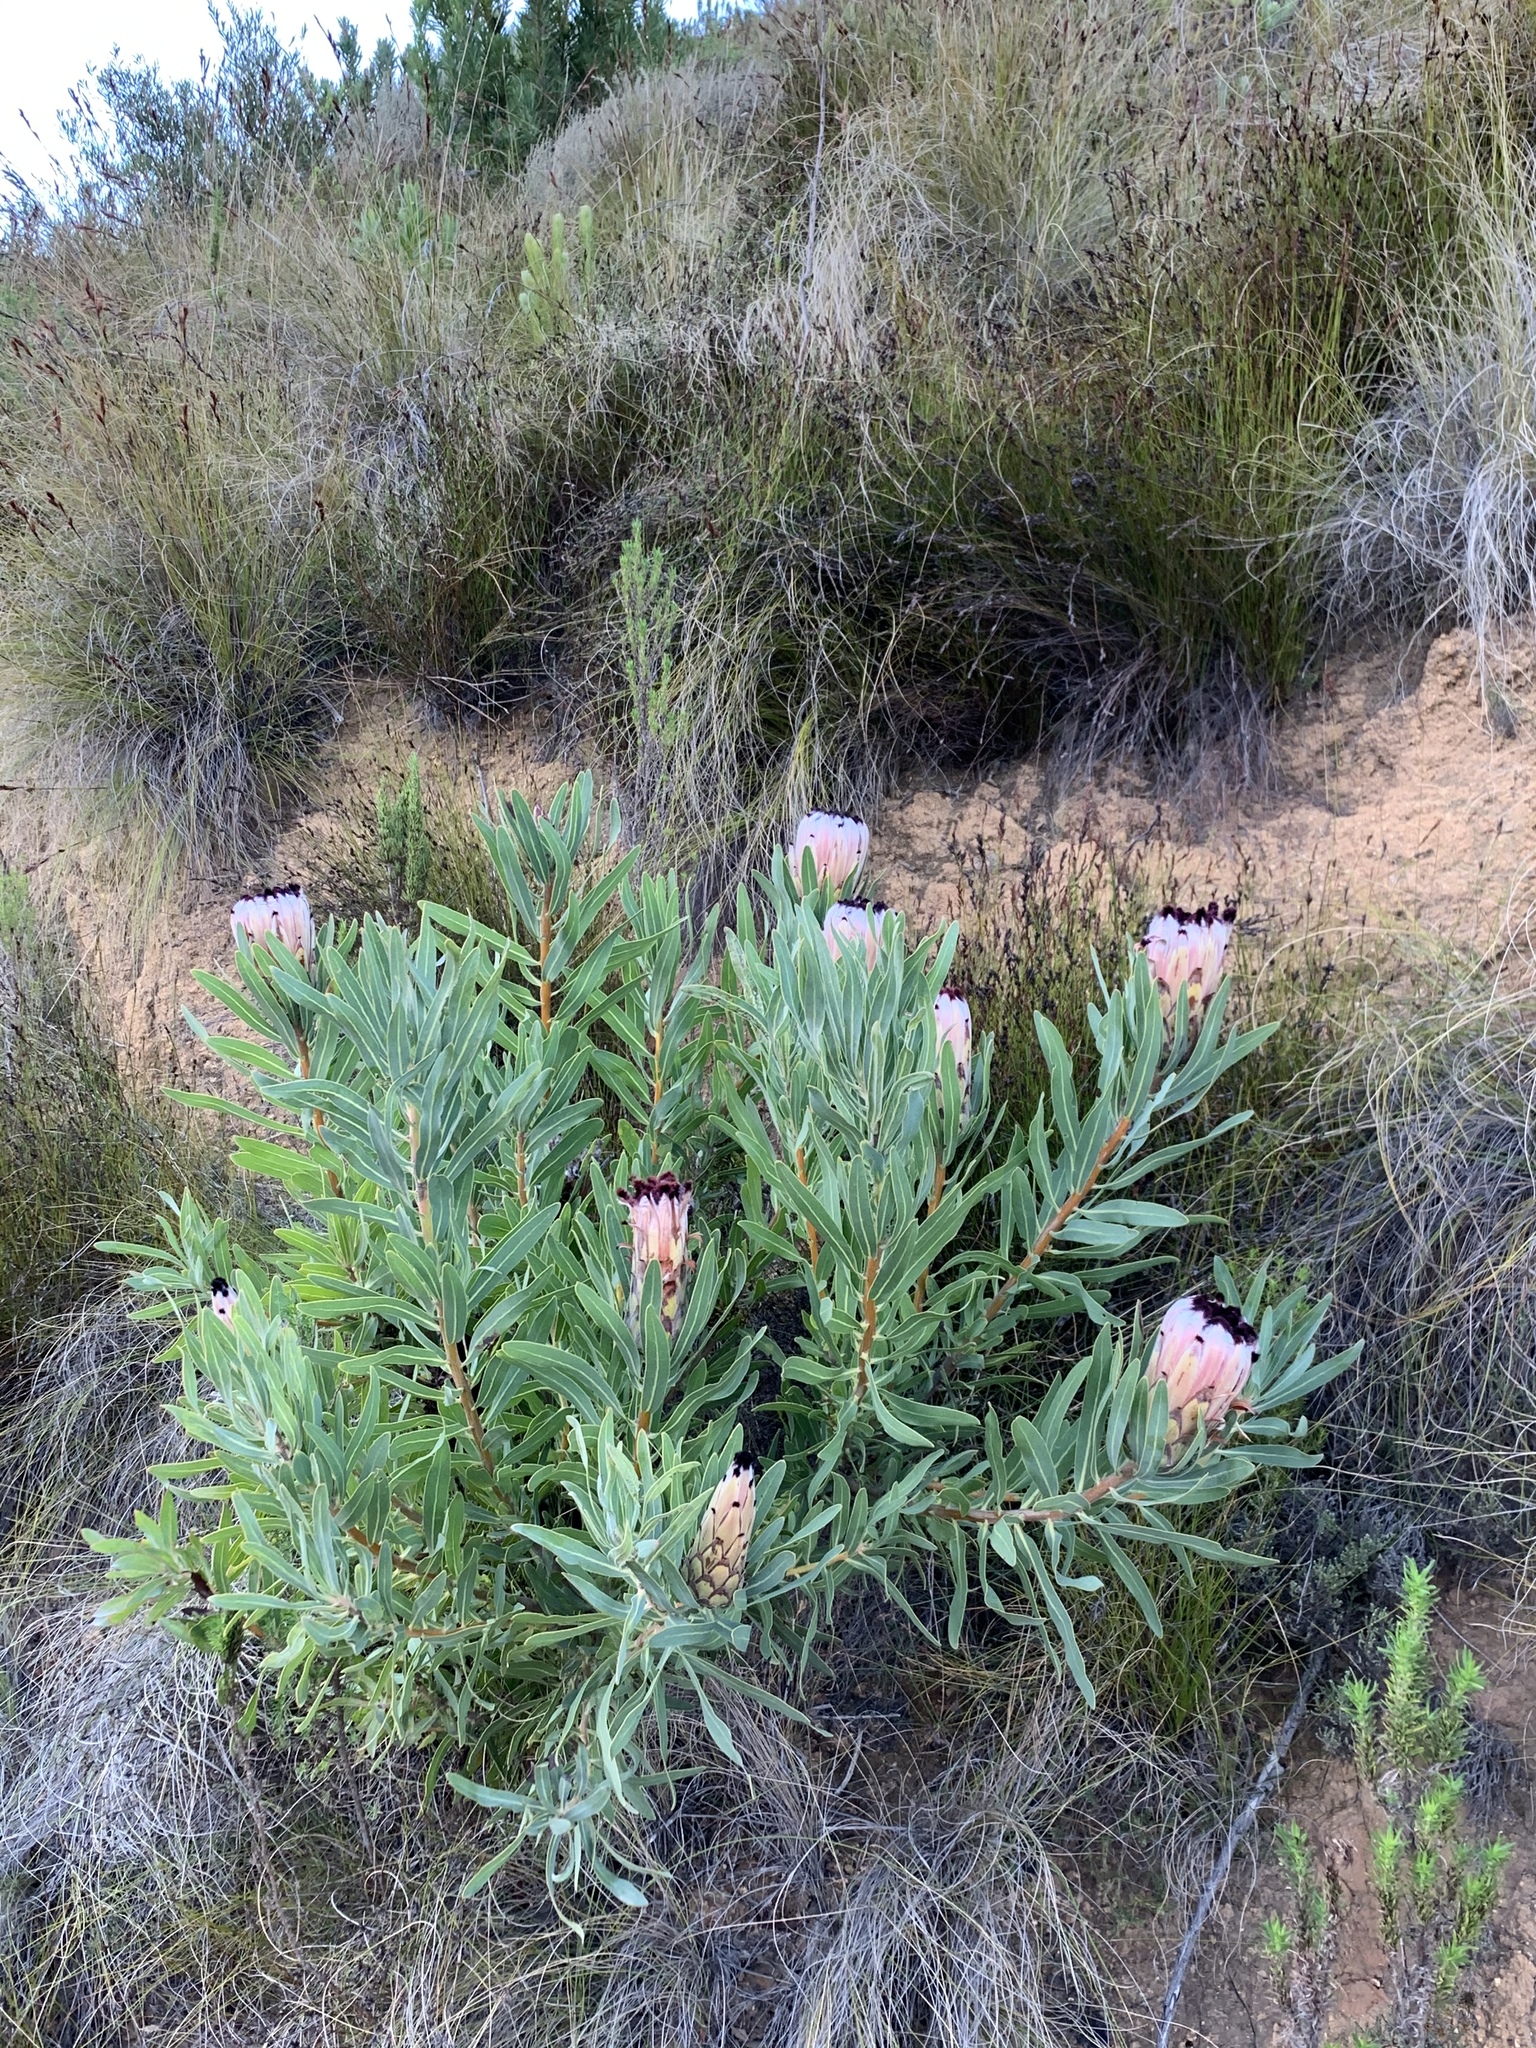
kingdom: Plantae
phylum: Tracheophyta
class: Magnoliopsida
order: Proteales
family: Proteaceae
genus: Protea
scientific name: Protea neriifolia
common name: Blue sugarbush
